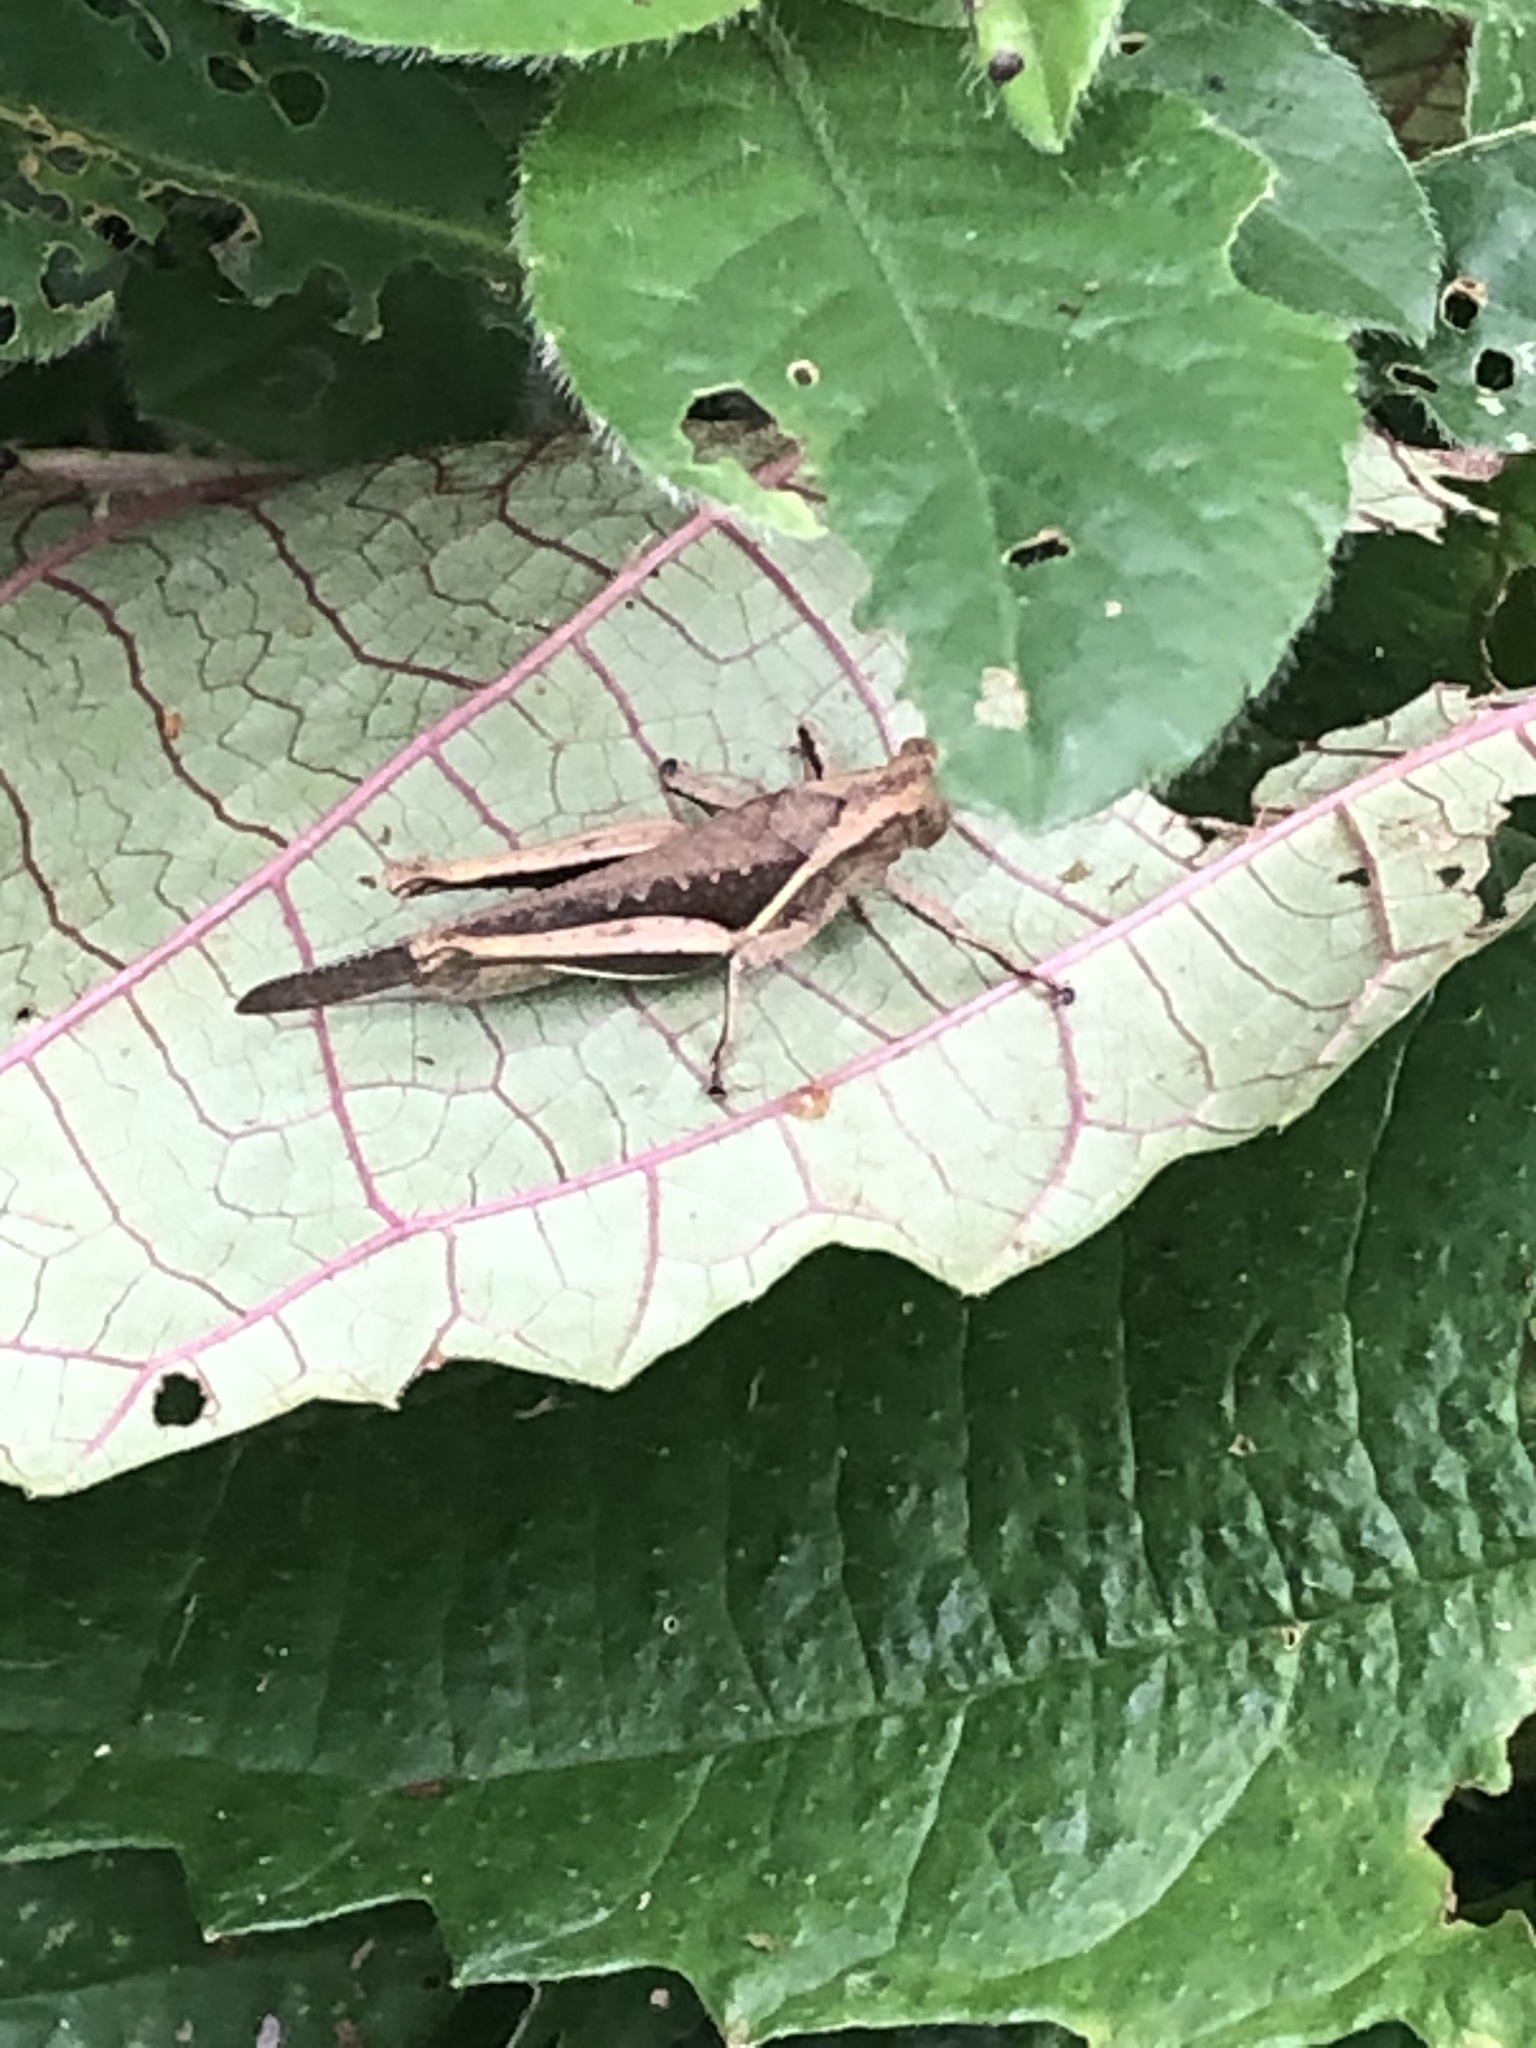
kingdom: Animalia
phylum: Arthropoda
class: Insecta
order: Orthoptera
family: Acrididae
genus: Abracris
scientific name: Abracris flavolineata
